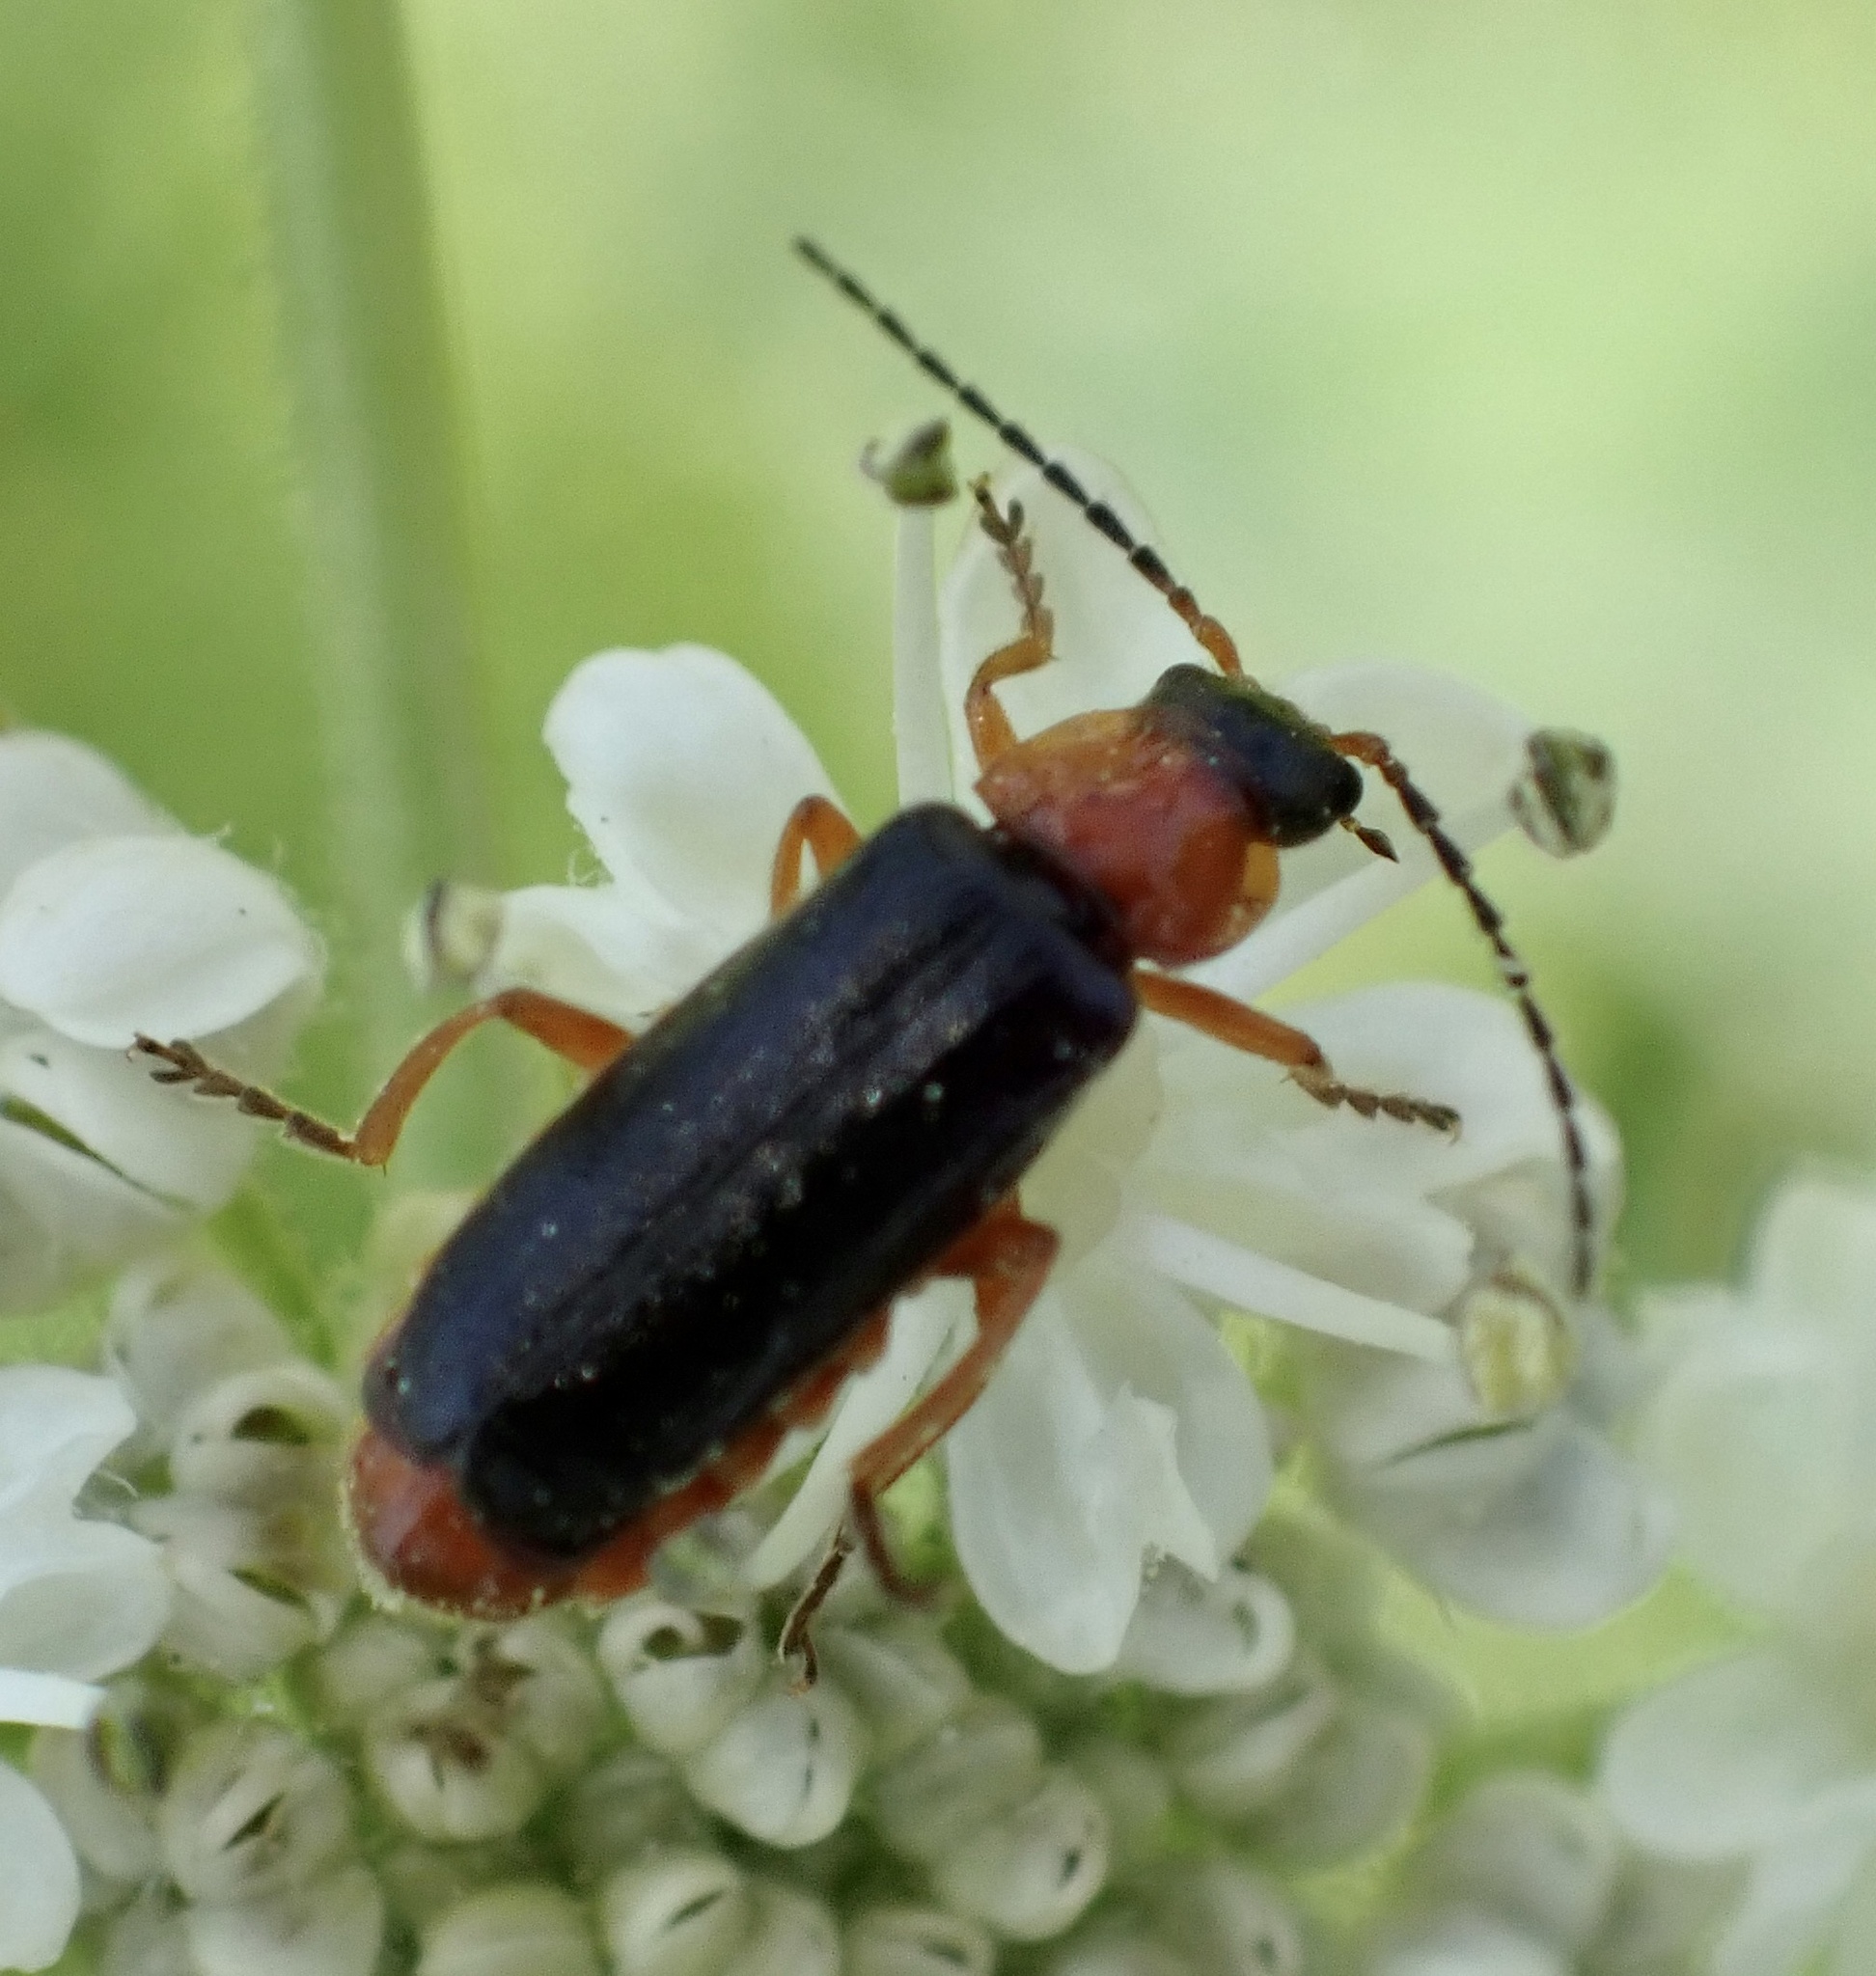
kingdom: Animalia
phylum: Arthropoda
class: Insecta
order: Coleoptera
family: Cantharidae
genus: Cantharis
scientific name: Cantharis flavilabris
